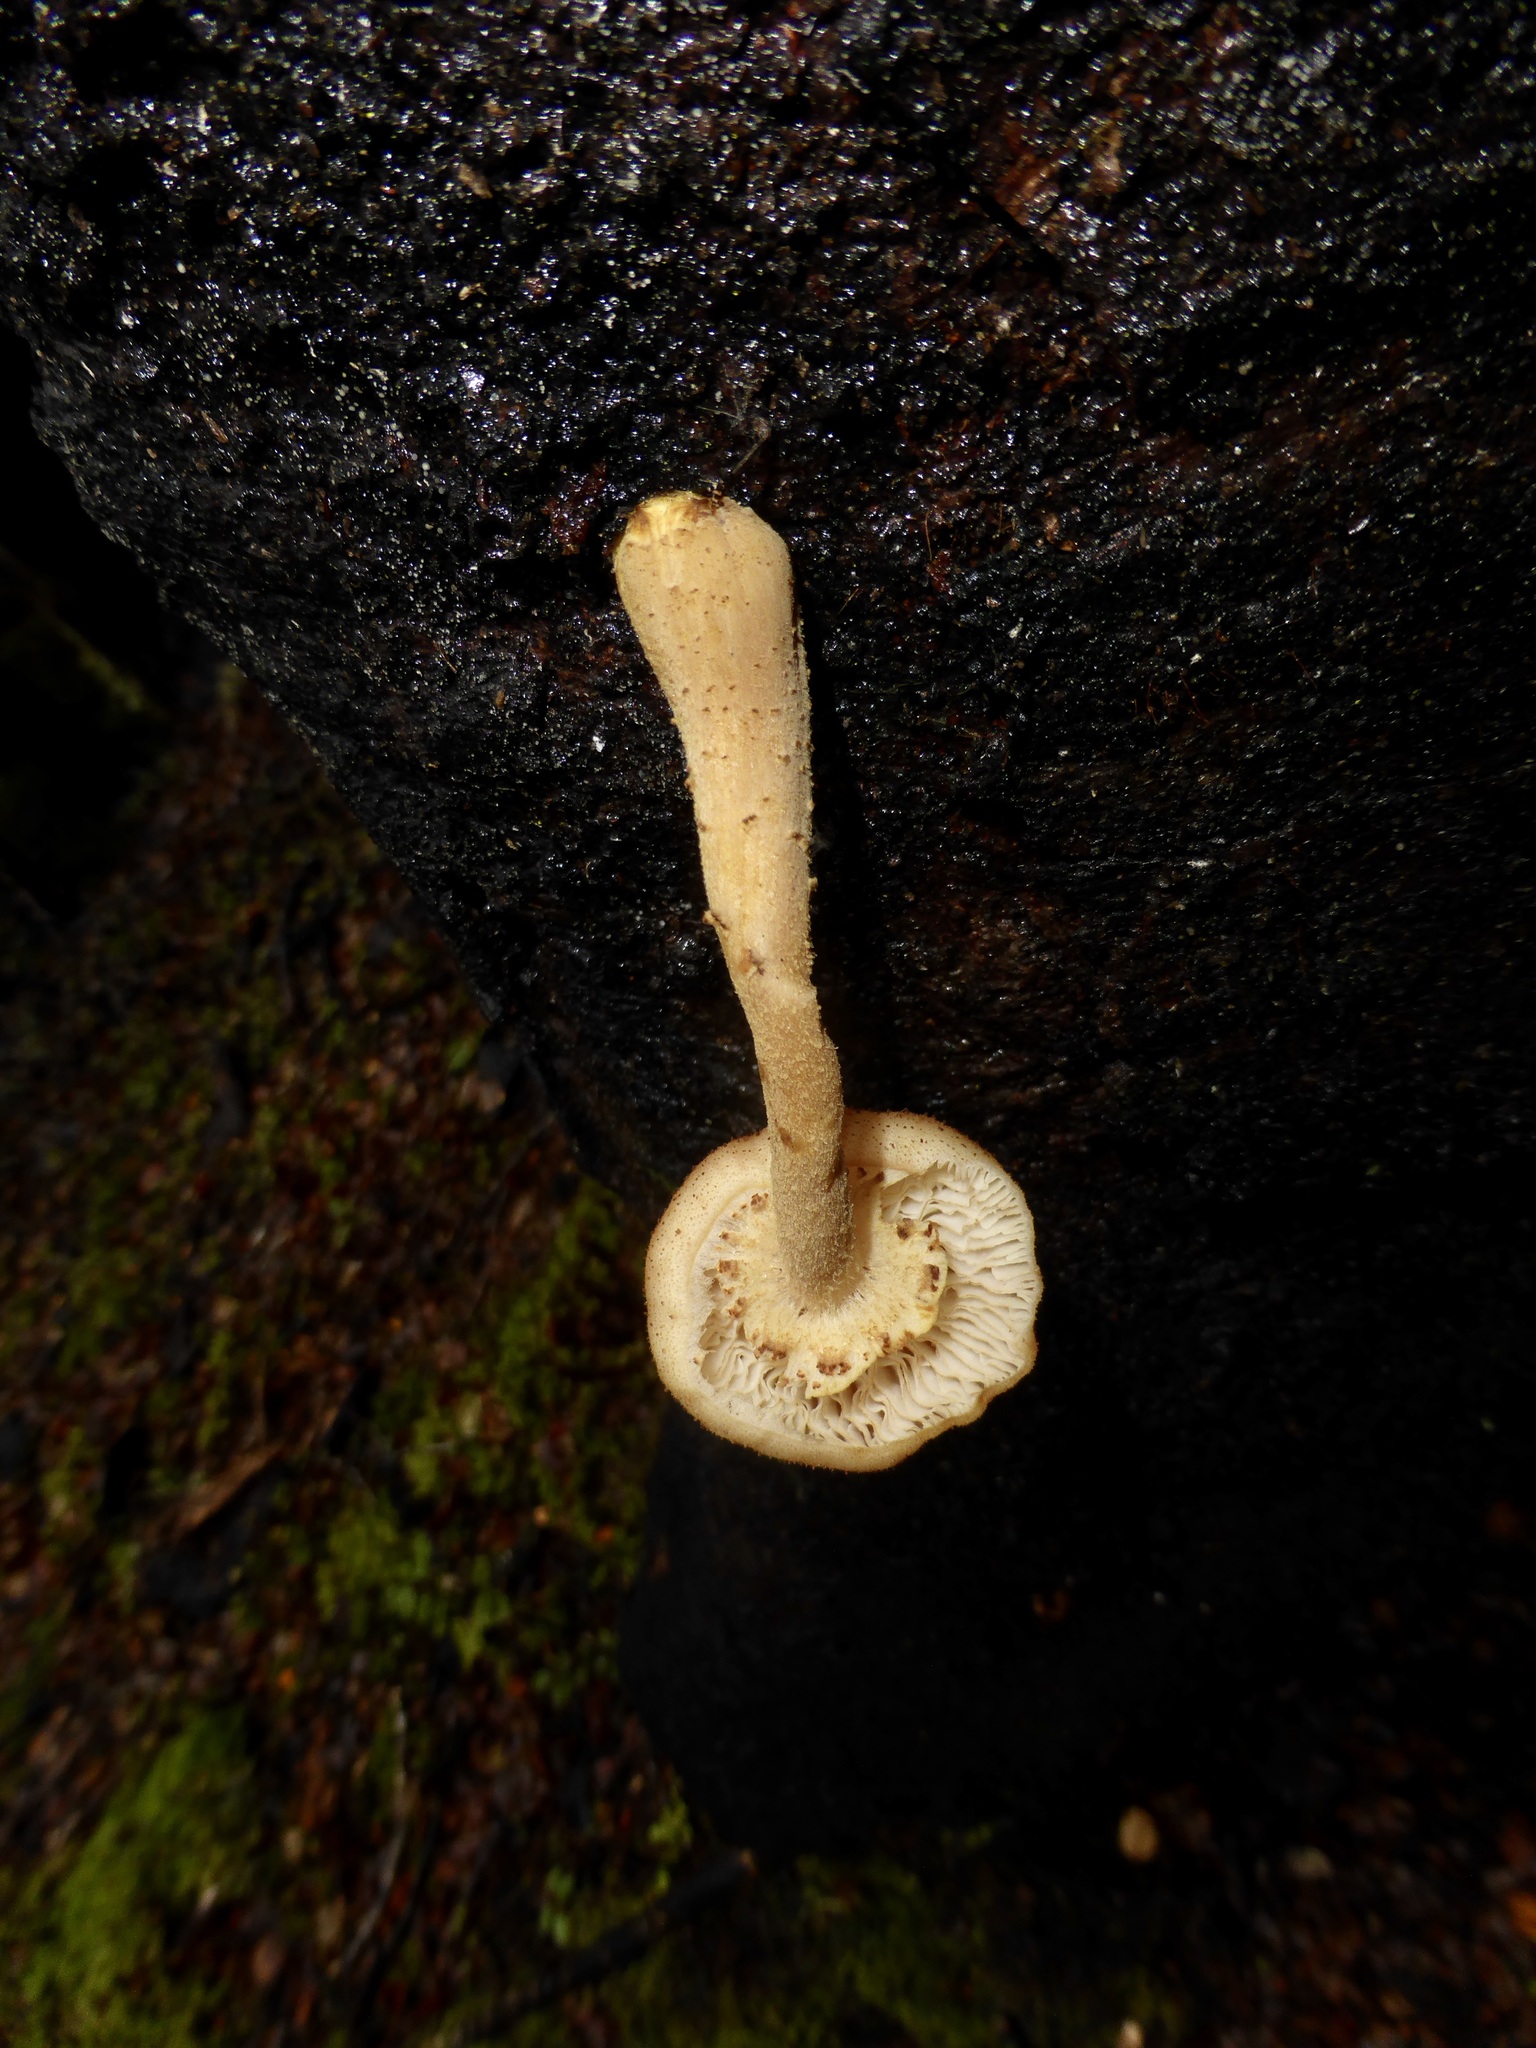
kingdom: Fungi
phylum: Basidiomycota
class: Agaricomycetes
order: Agaricales
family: Physalacriaceae
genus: Armillaria
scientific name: Armillaria limonea
